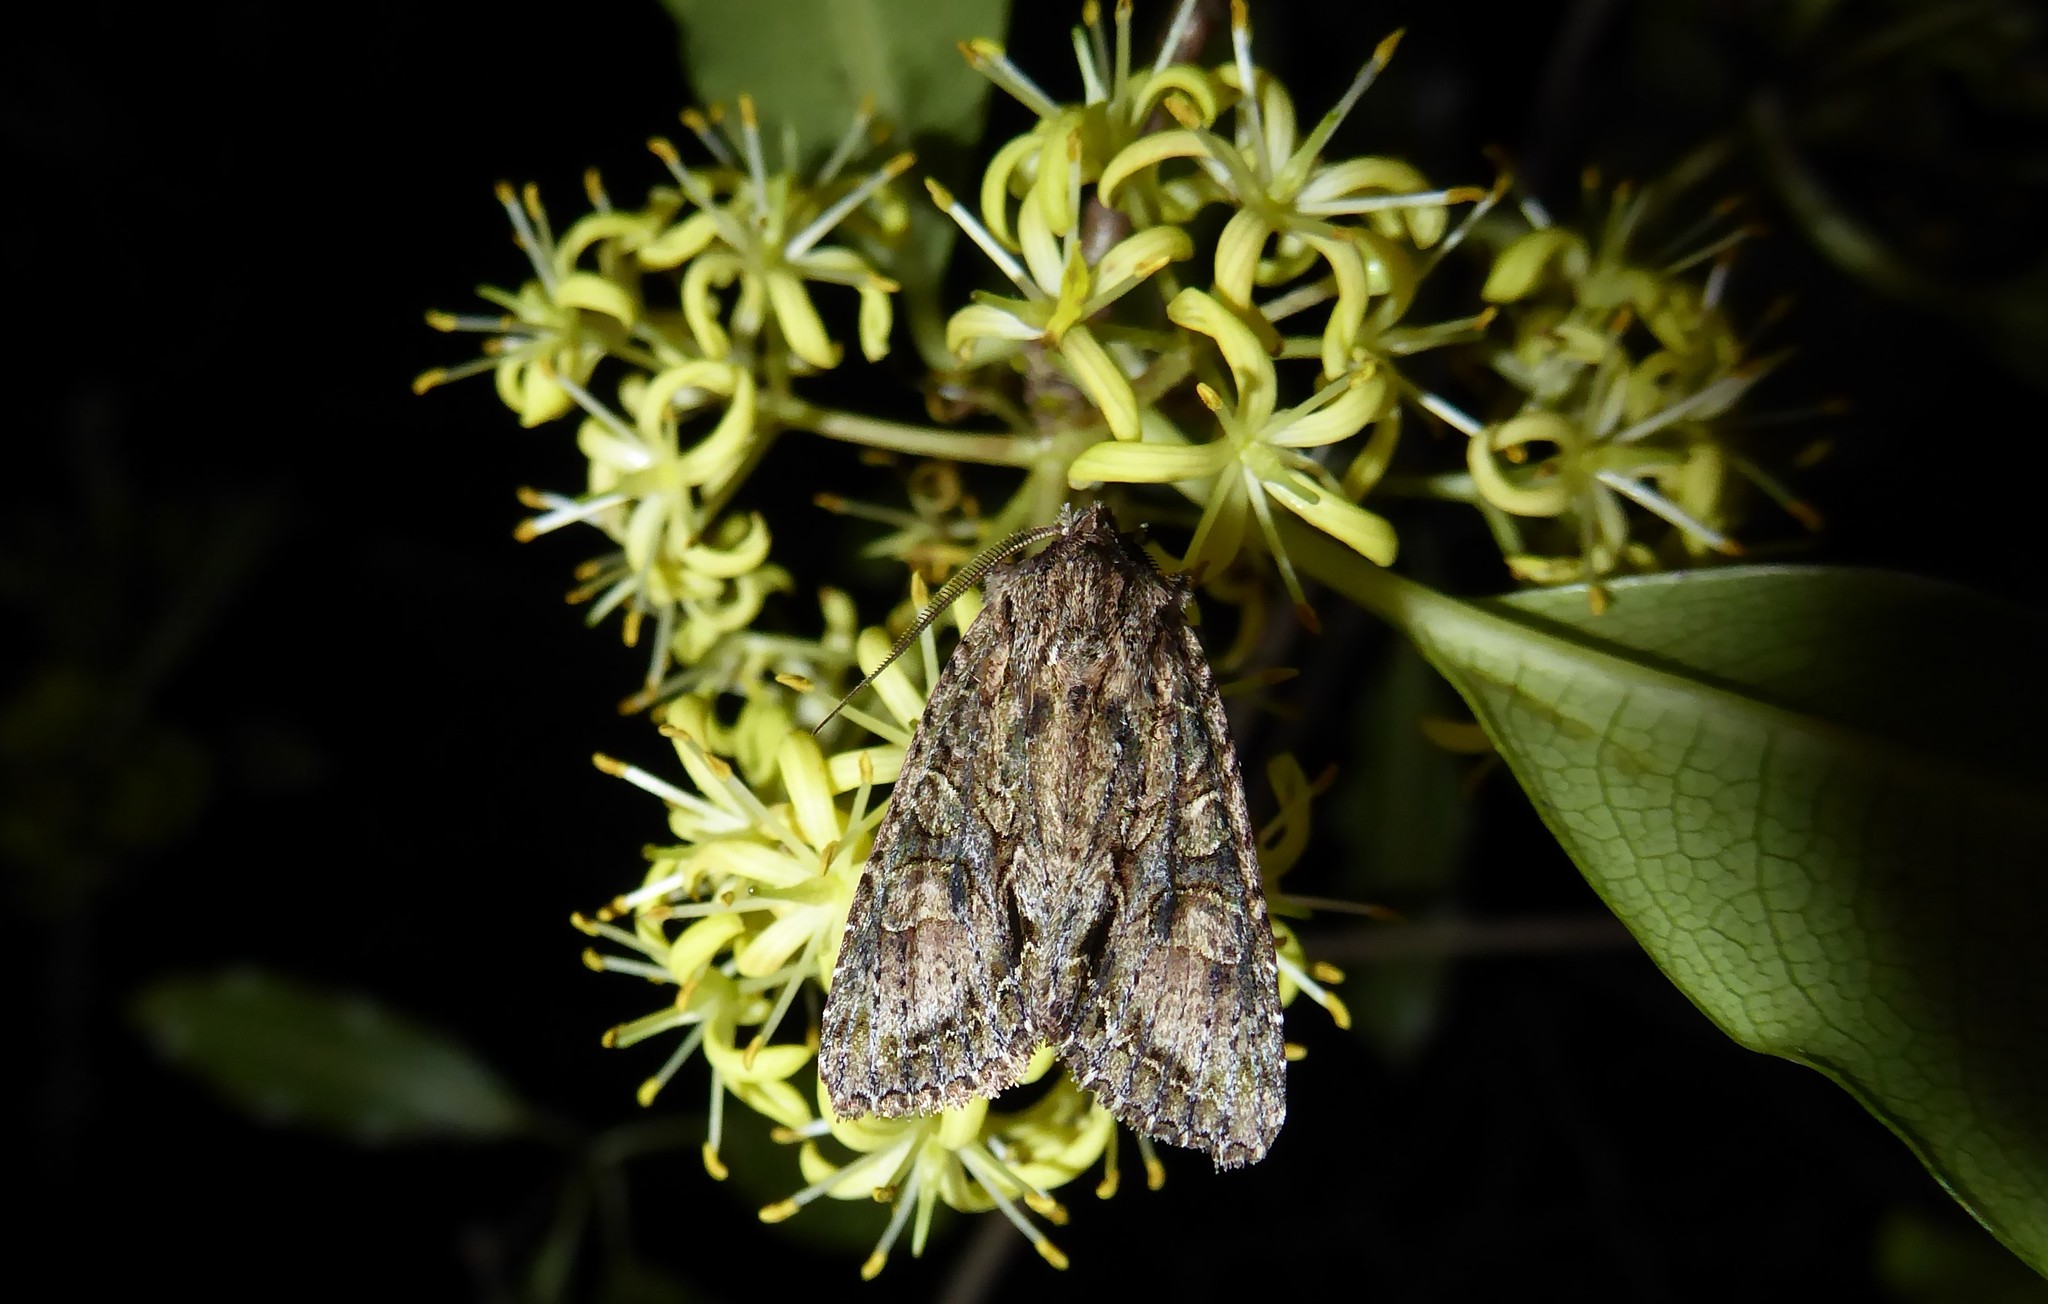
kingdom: Animalia
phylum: Arthropoda
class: Insecta
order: Lepidoptera
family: Noctuidae
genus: Ichneutica
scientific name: Ichneutica mutans
